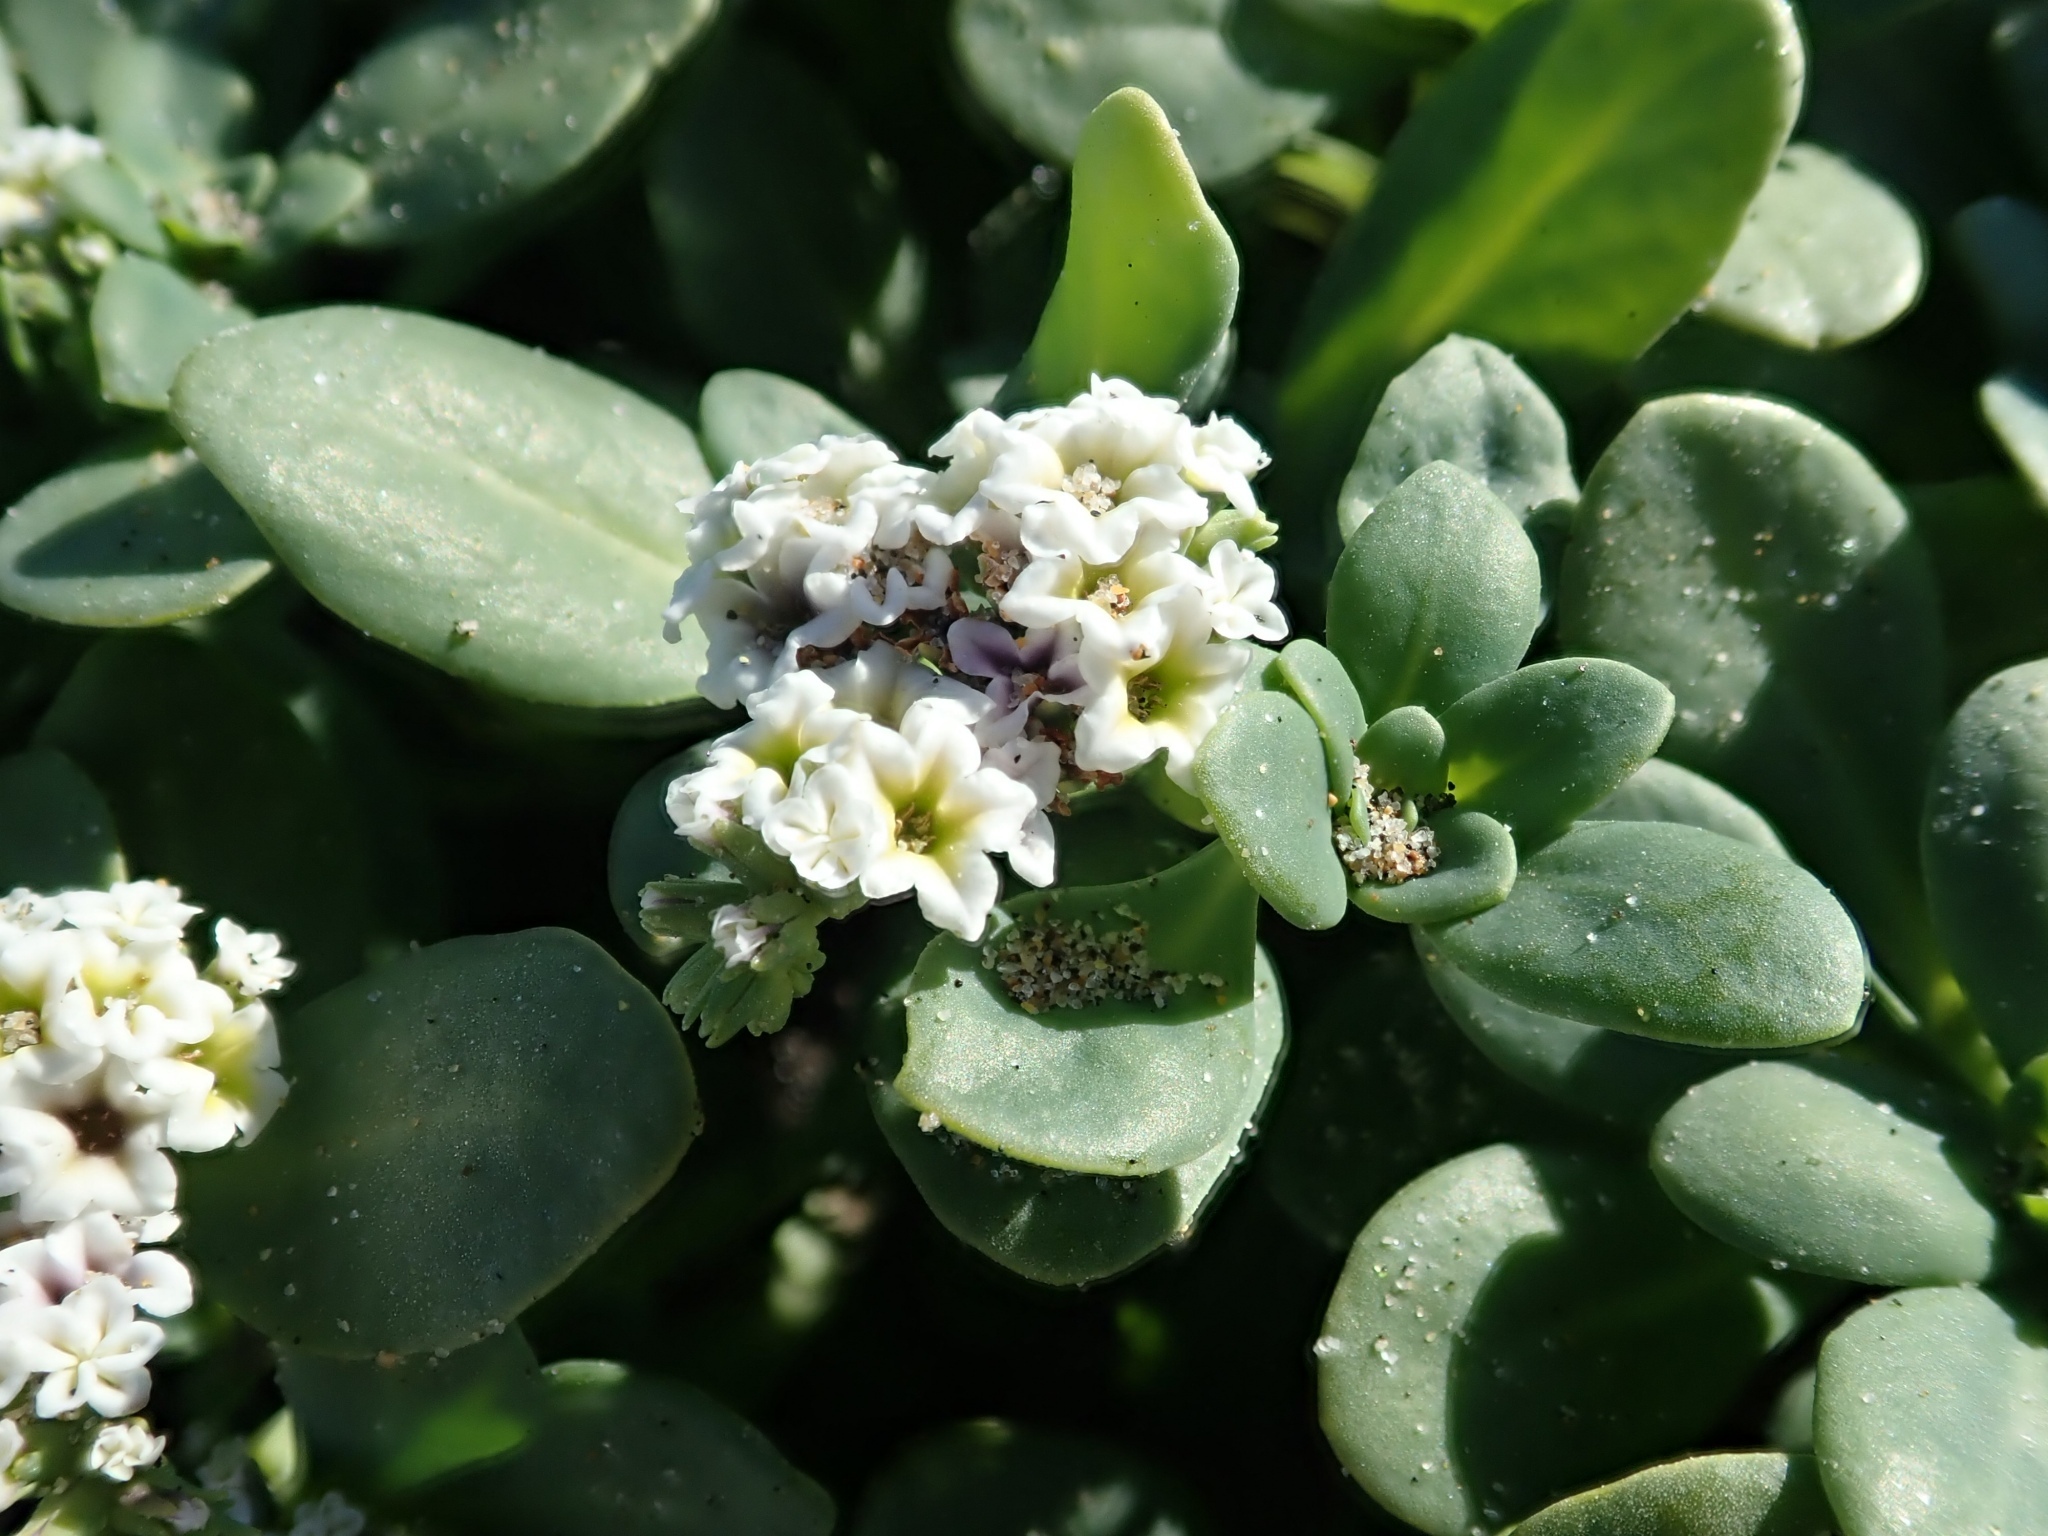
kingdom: Plantae
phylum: Tracheophyta
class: Magnoliopsida
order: Boraginales
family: Heliotropiaceae
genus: Heliotropium
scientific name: Heliotropium curassavicum
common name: Seaside heliotrope
